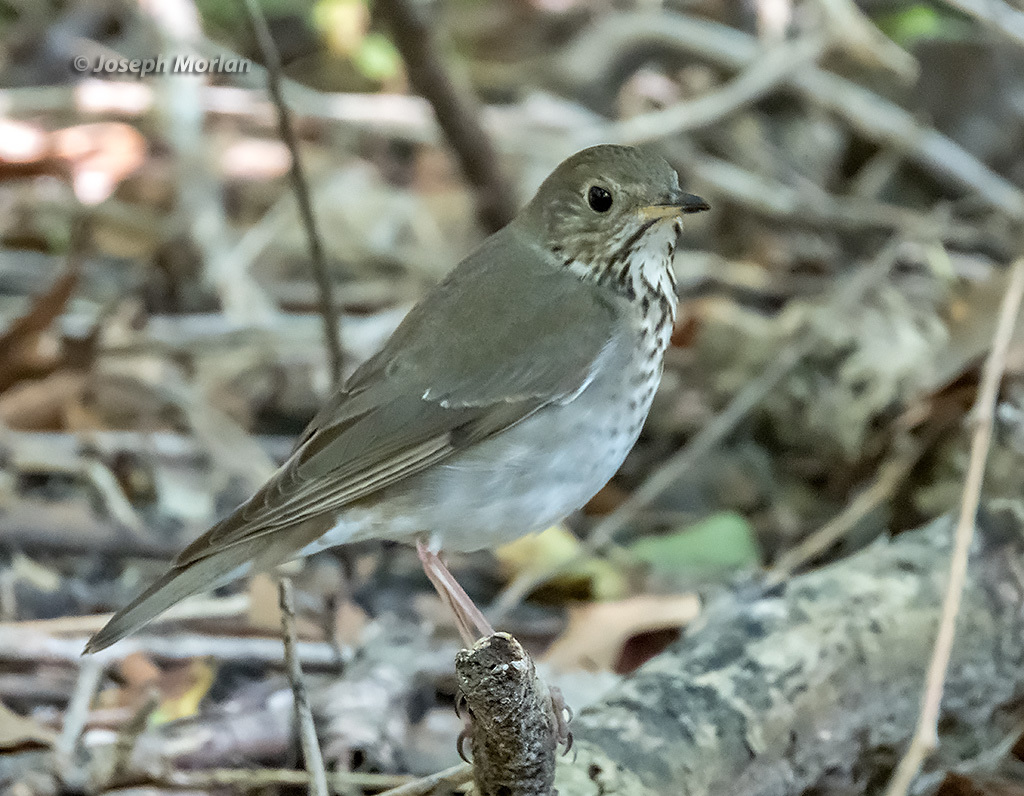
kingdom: Animalia
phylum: Chordata
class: Aves
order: Passeriformes
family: Turdidae
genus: Catharus
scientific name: Catharus minimus
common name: Grey-cheeked thrush
